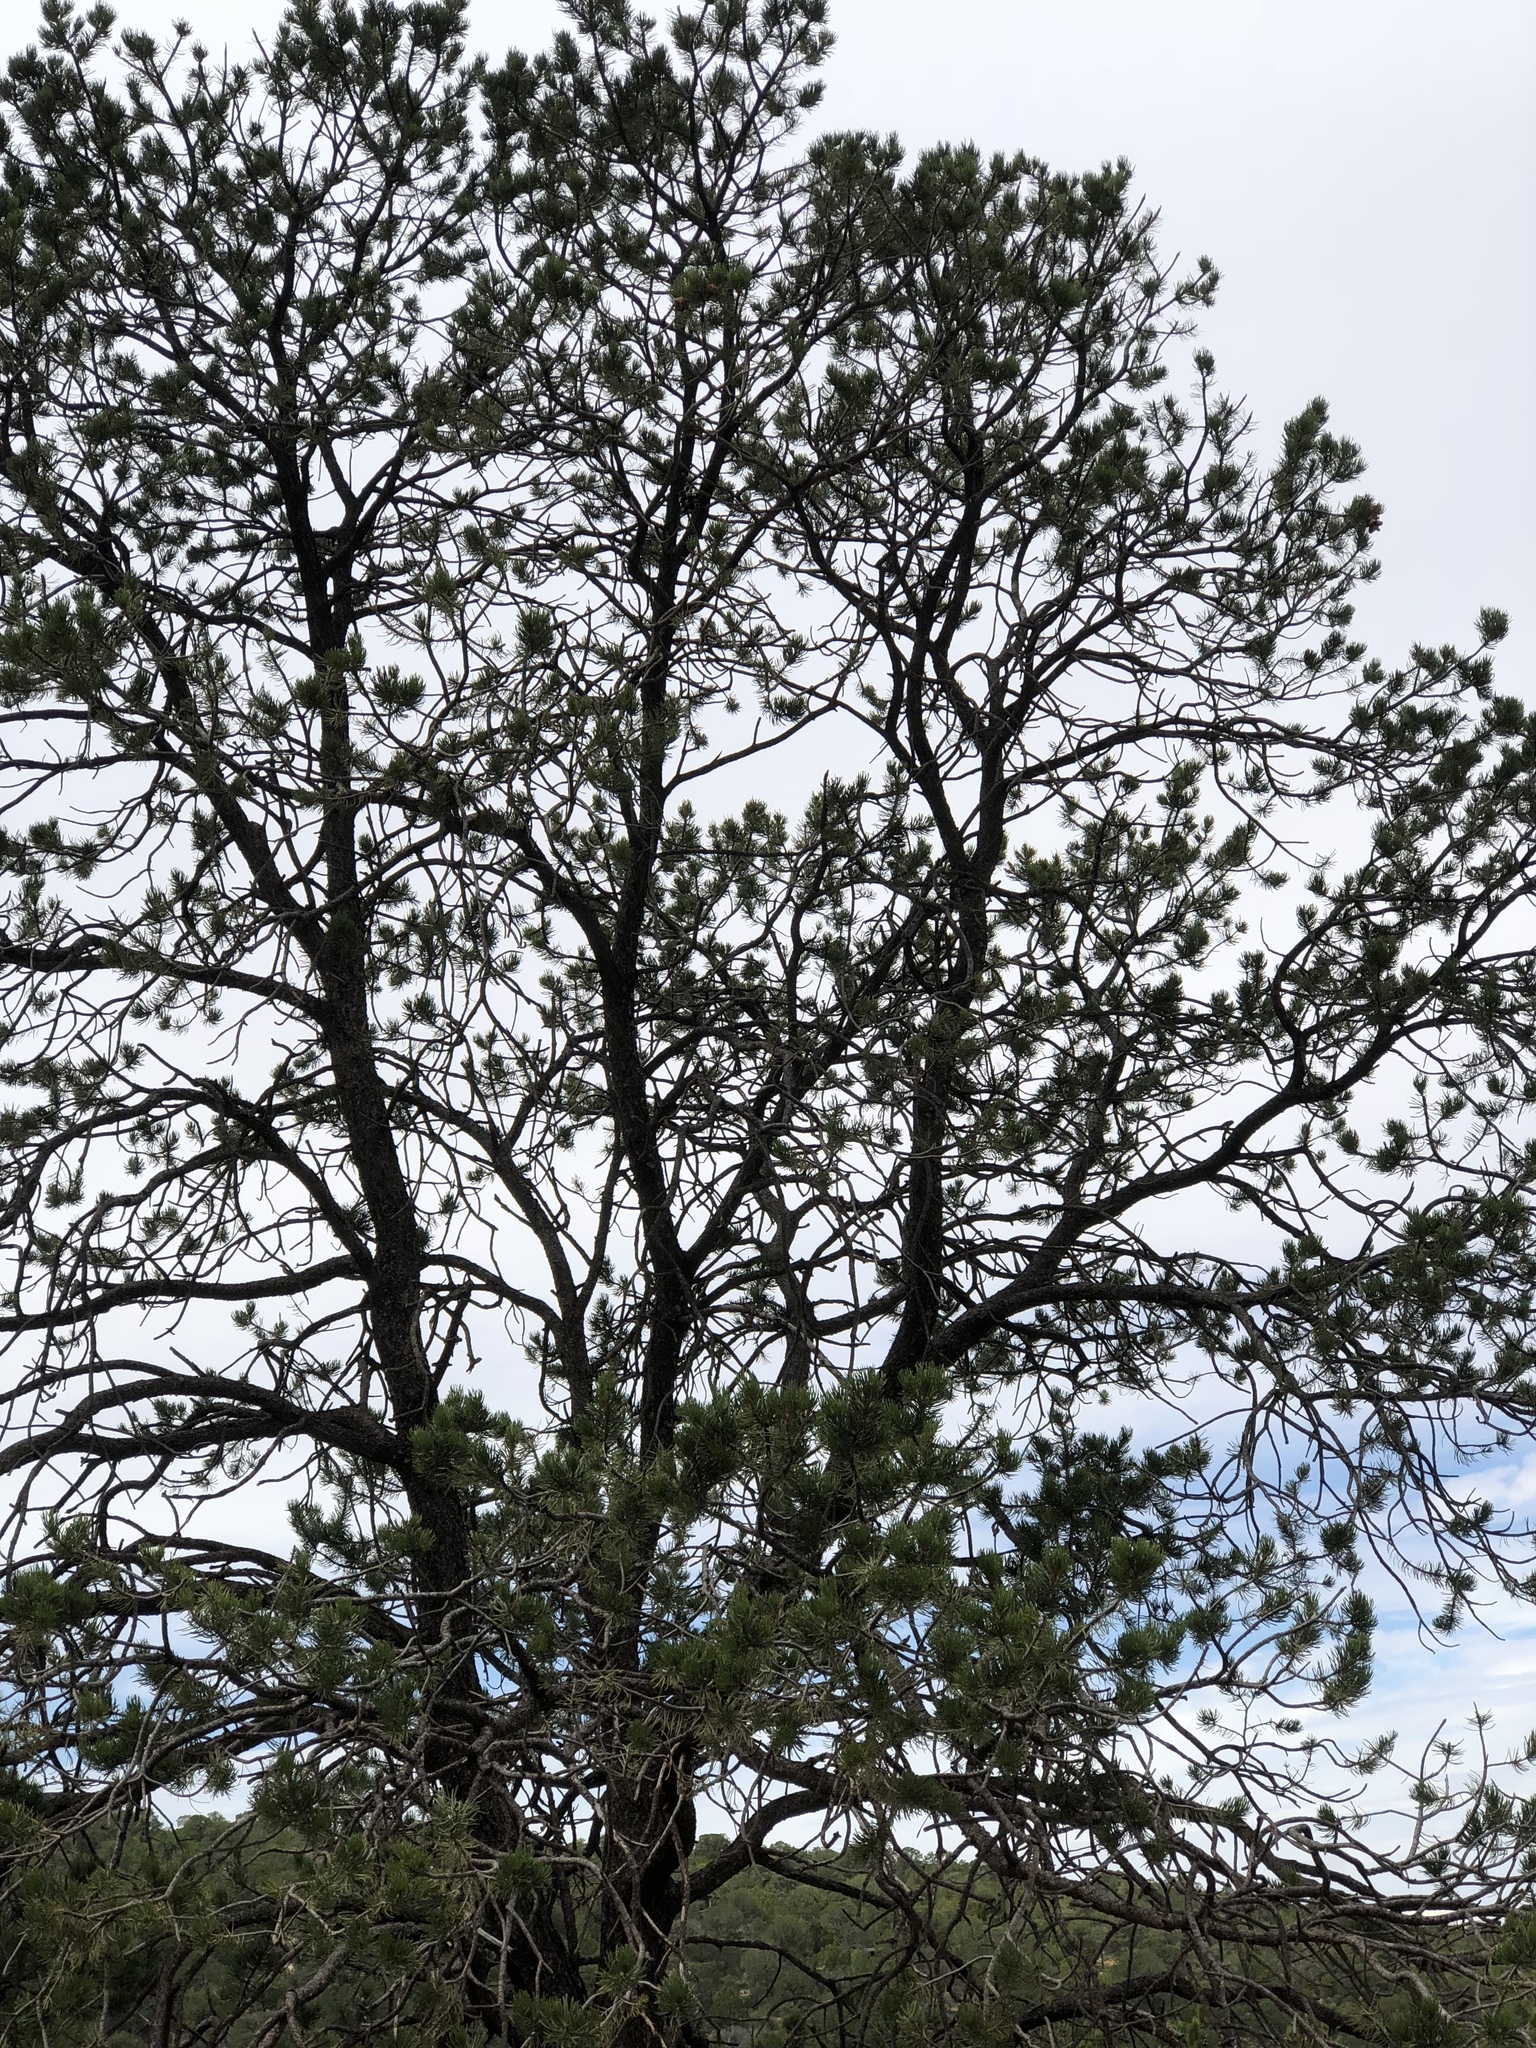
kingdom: Plantae
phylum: Tracheophyta
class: Pinopsida
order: Pinales
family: Pinaceae
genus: Pinus
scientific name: Pinus ponderosa
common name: Western yellow-pine
